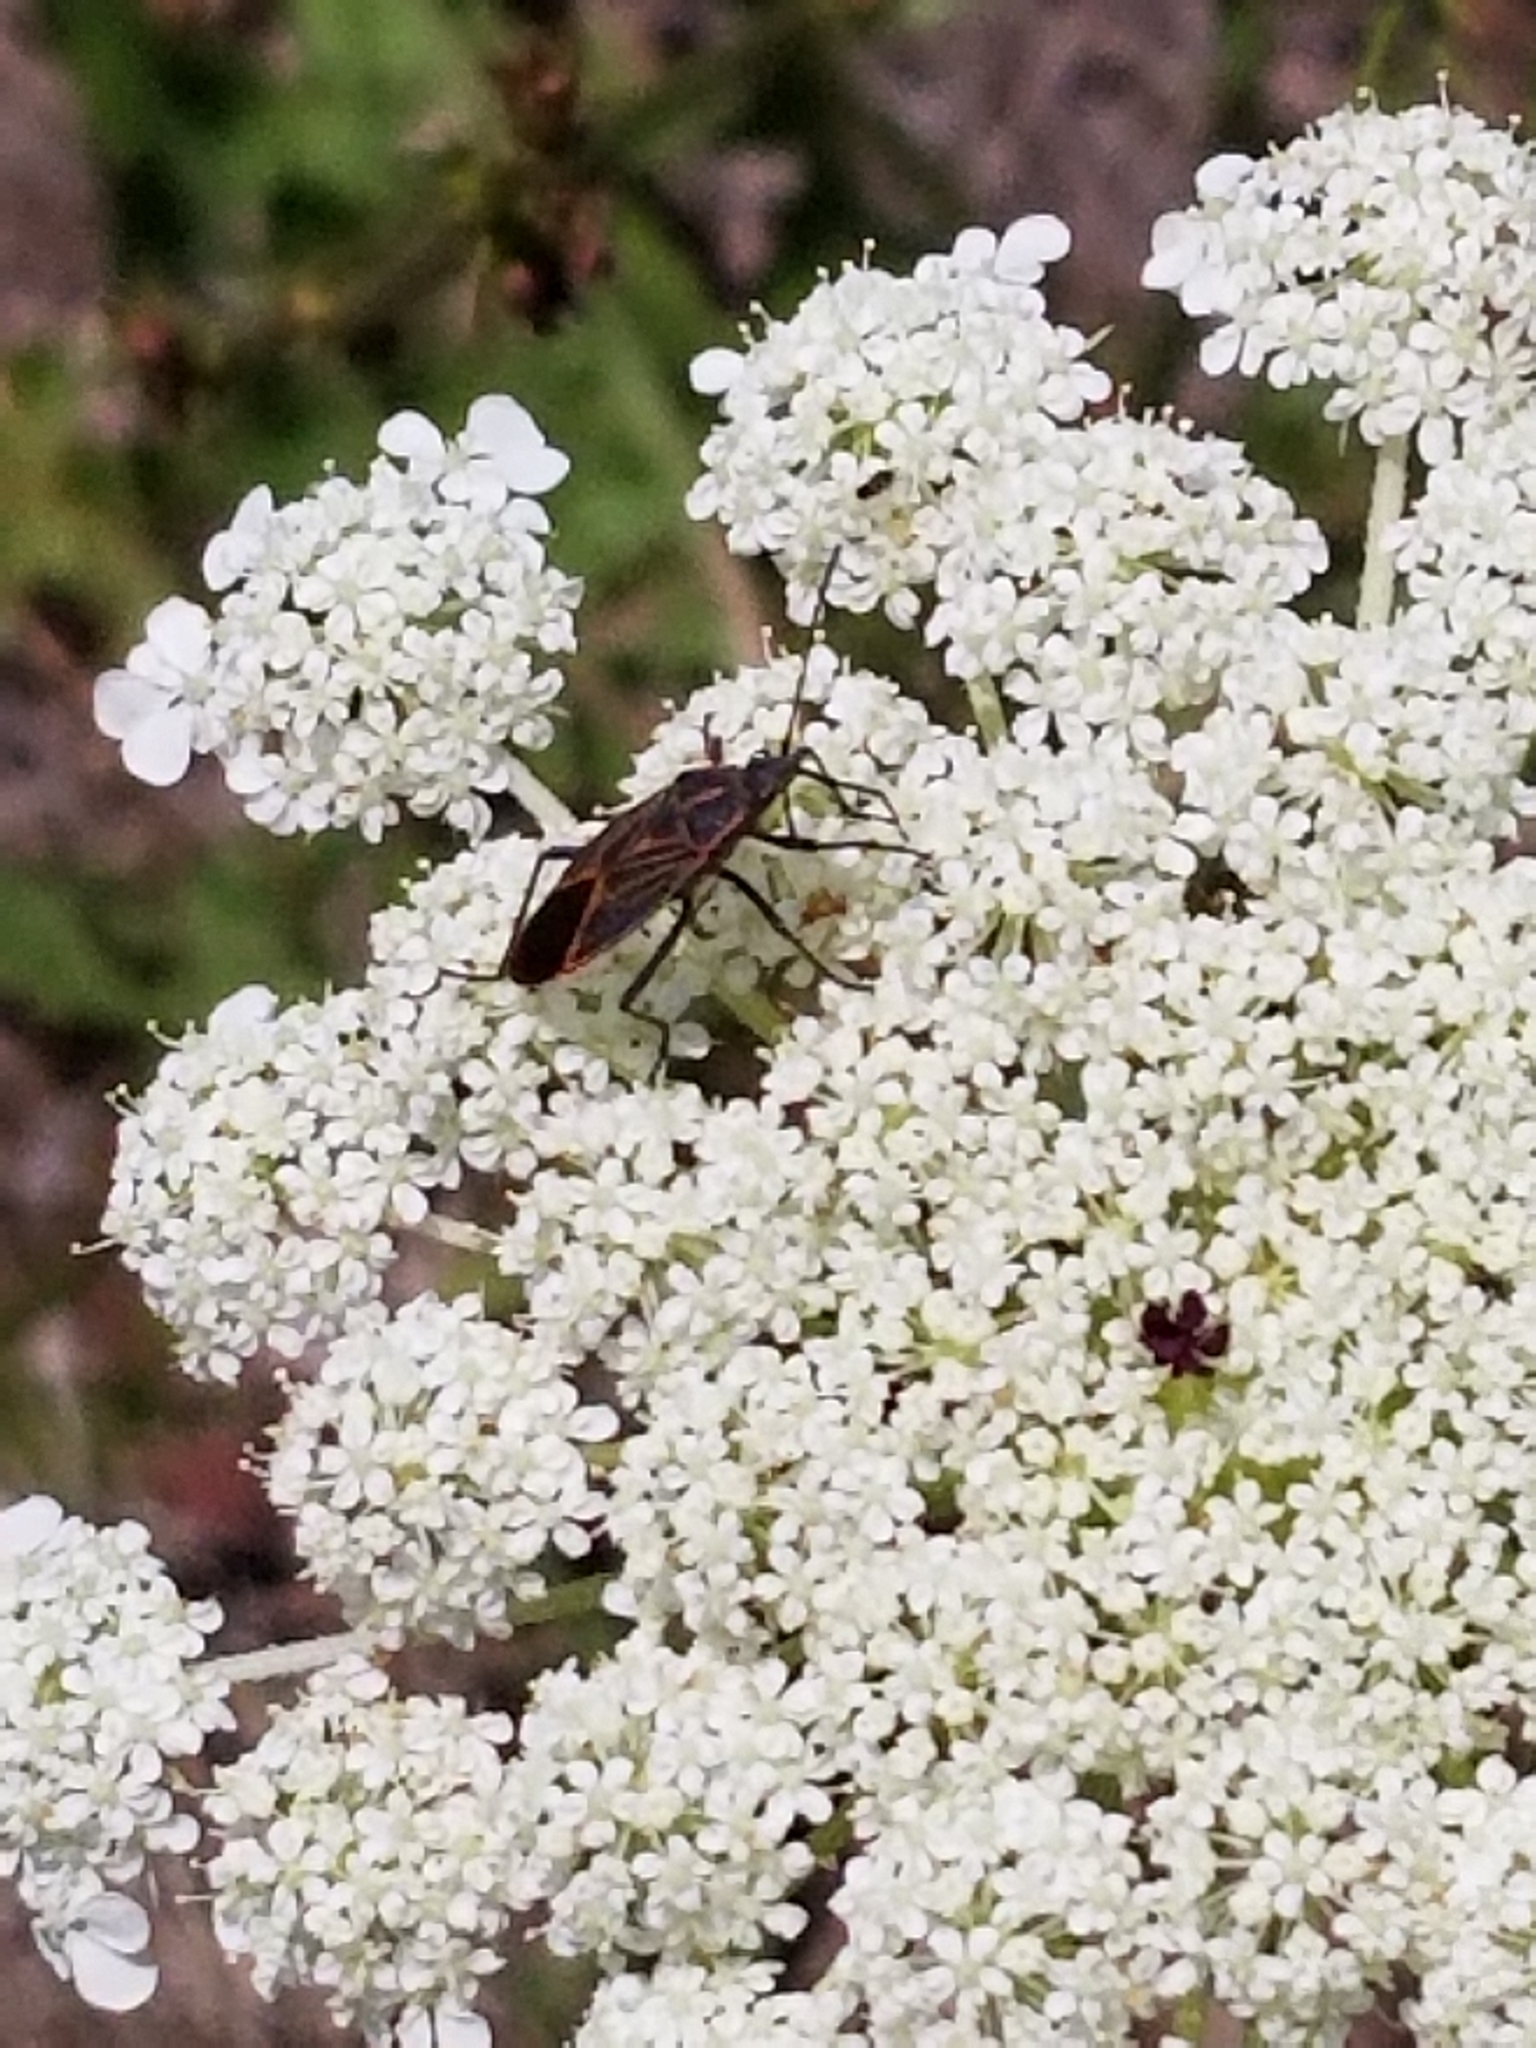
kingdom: Animalia
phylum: Arthropoda
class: Insecta
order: Hemiptera
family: Rhopalidae
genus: Boisea
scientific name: Boisea rubrolineata
